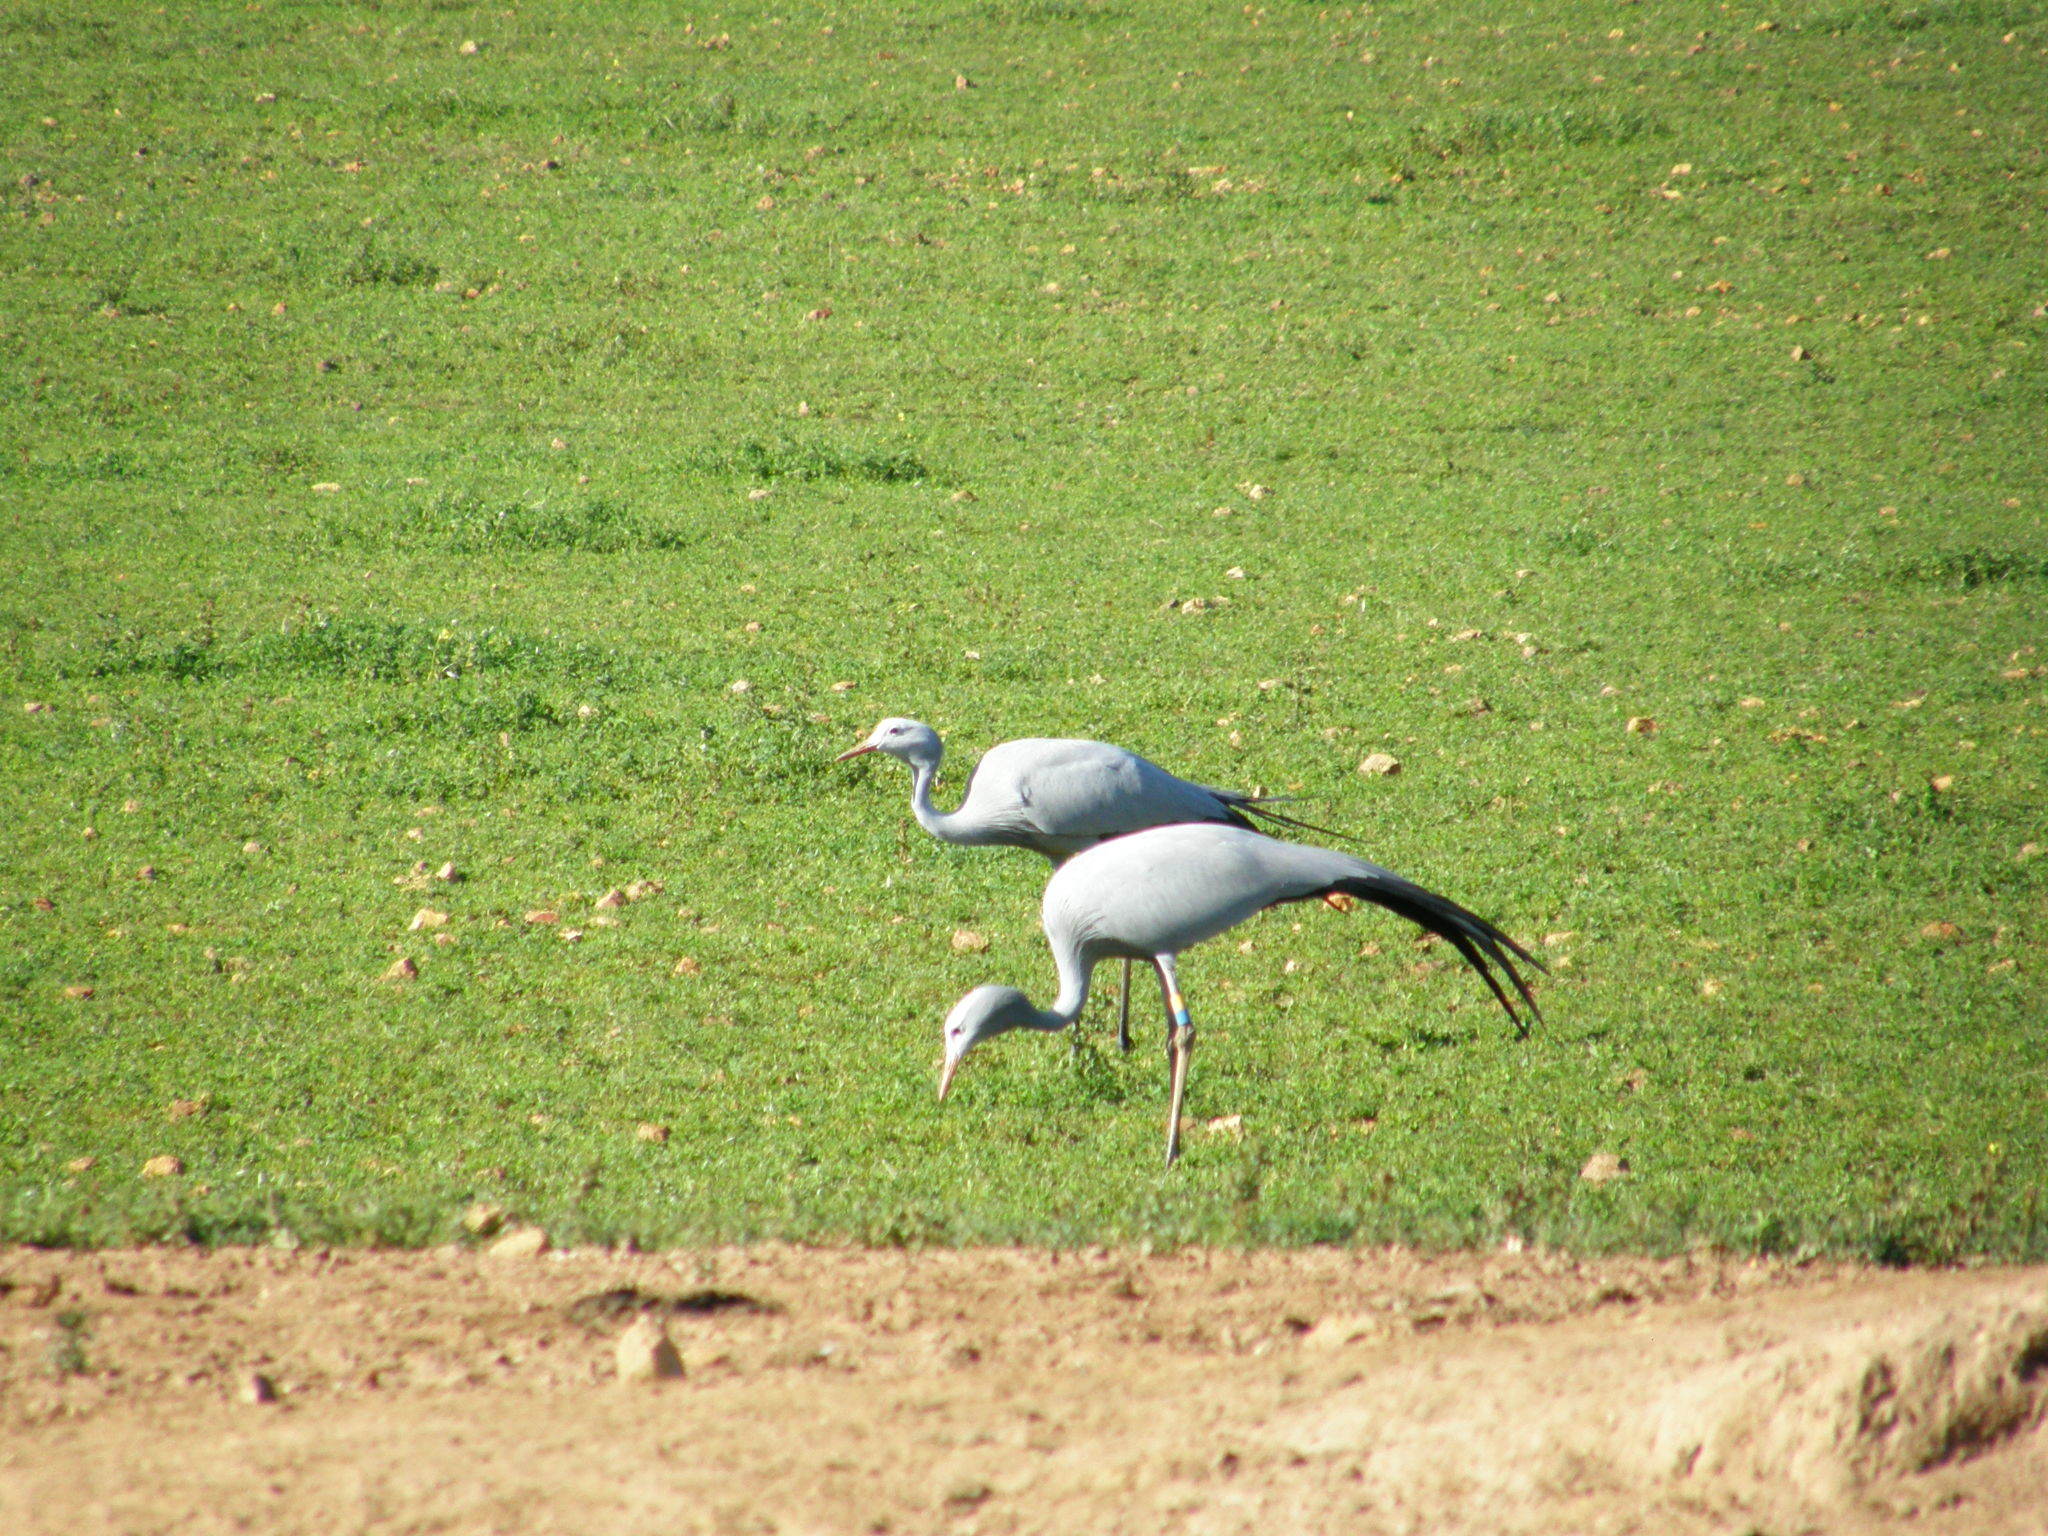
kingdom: Animalia
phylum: Chordata
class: Aves
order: Gruiformes
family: Gruidae
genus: Anthropoides
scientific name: Anthropoides paradiseus
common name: Blue crane
